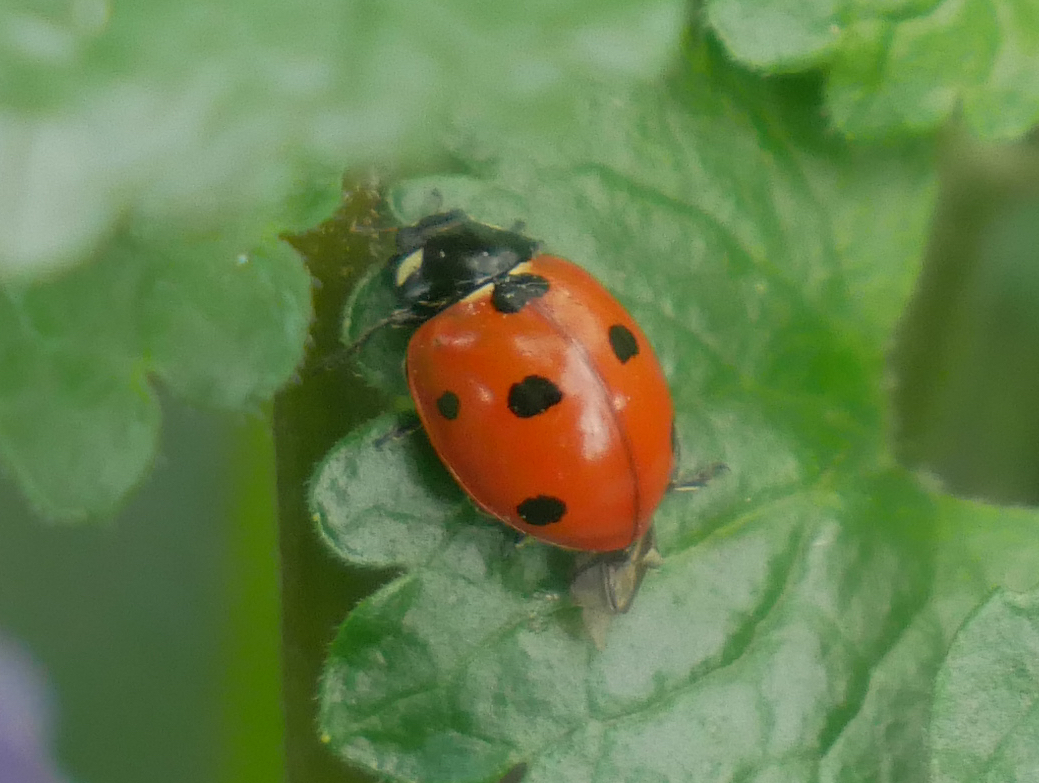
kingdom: Animalia
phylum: Arthropoda
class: Insecta
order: Coleoptera
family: Coccinellidae
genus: Coccinella
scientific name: Coccinella septempunctata
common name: Sevenspotted lady beetle
